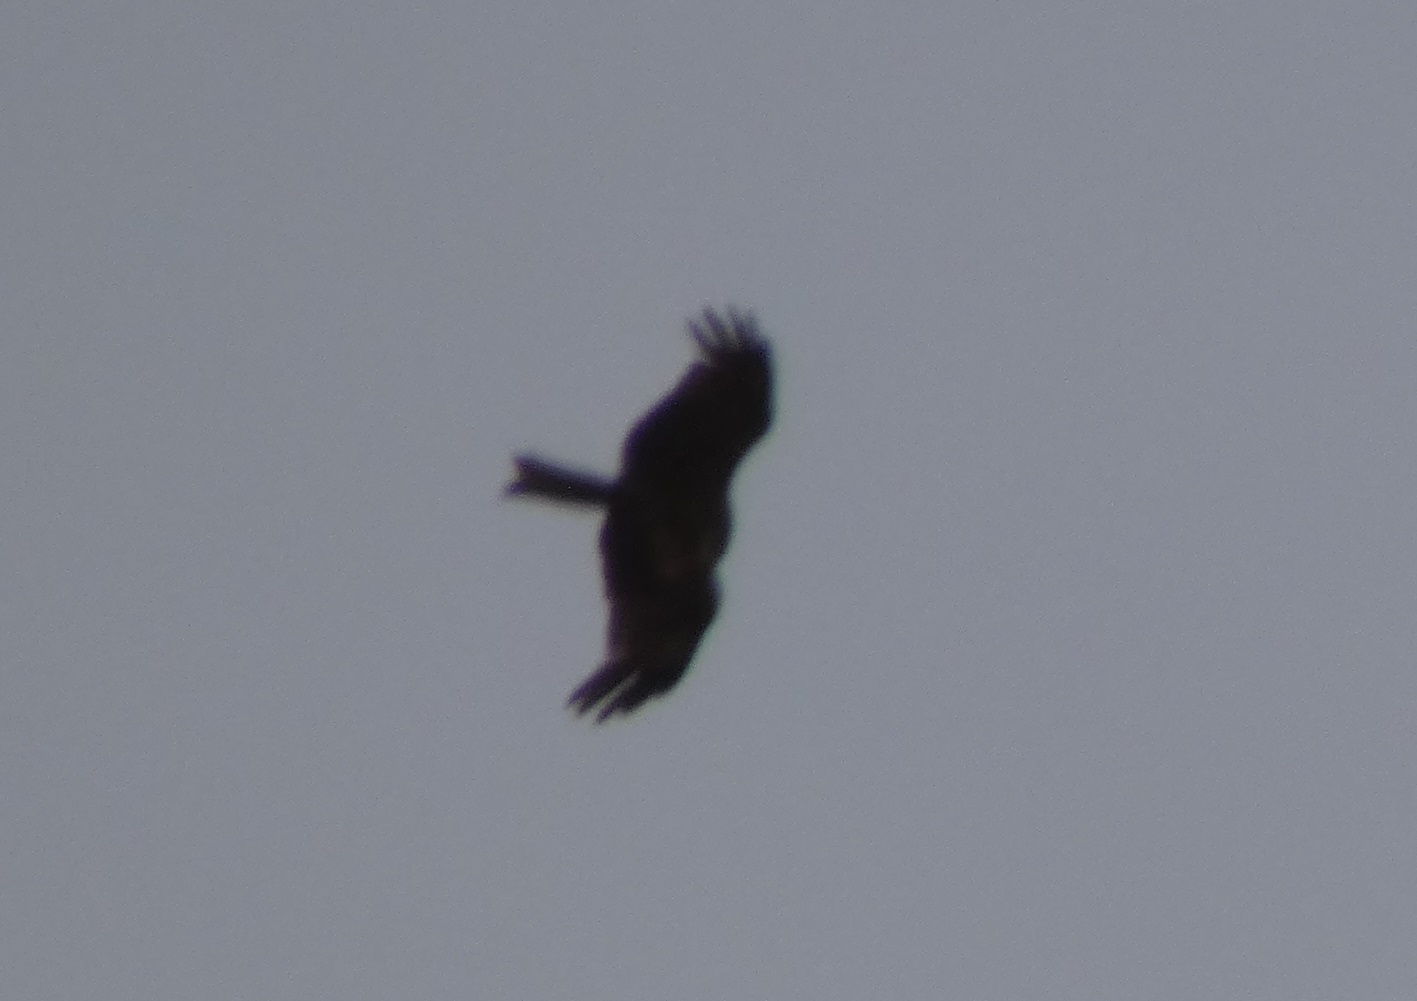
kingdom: Animalia
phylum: Chordata
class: Aves
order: Accipitriformes
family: Accipitridae
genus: Milvus
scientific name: Milvus migrans
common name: Black kite
